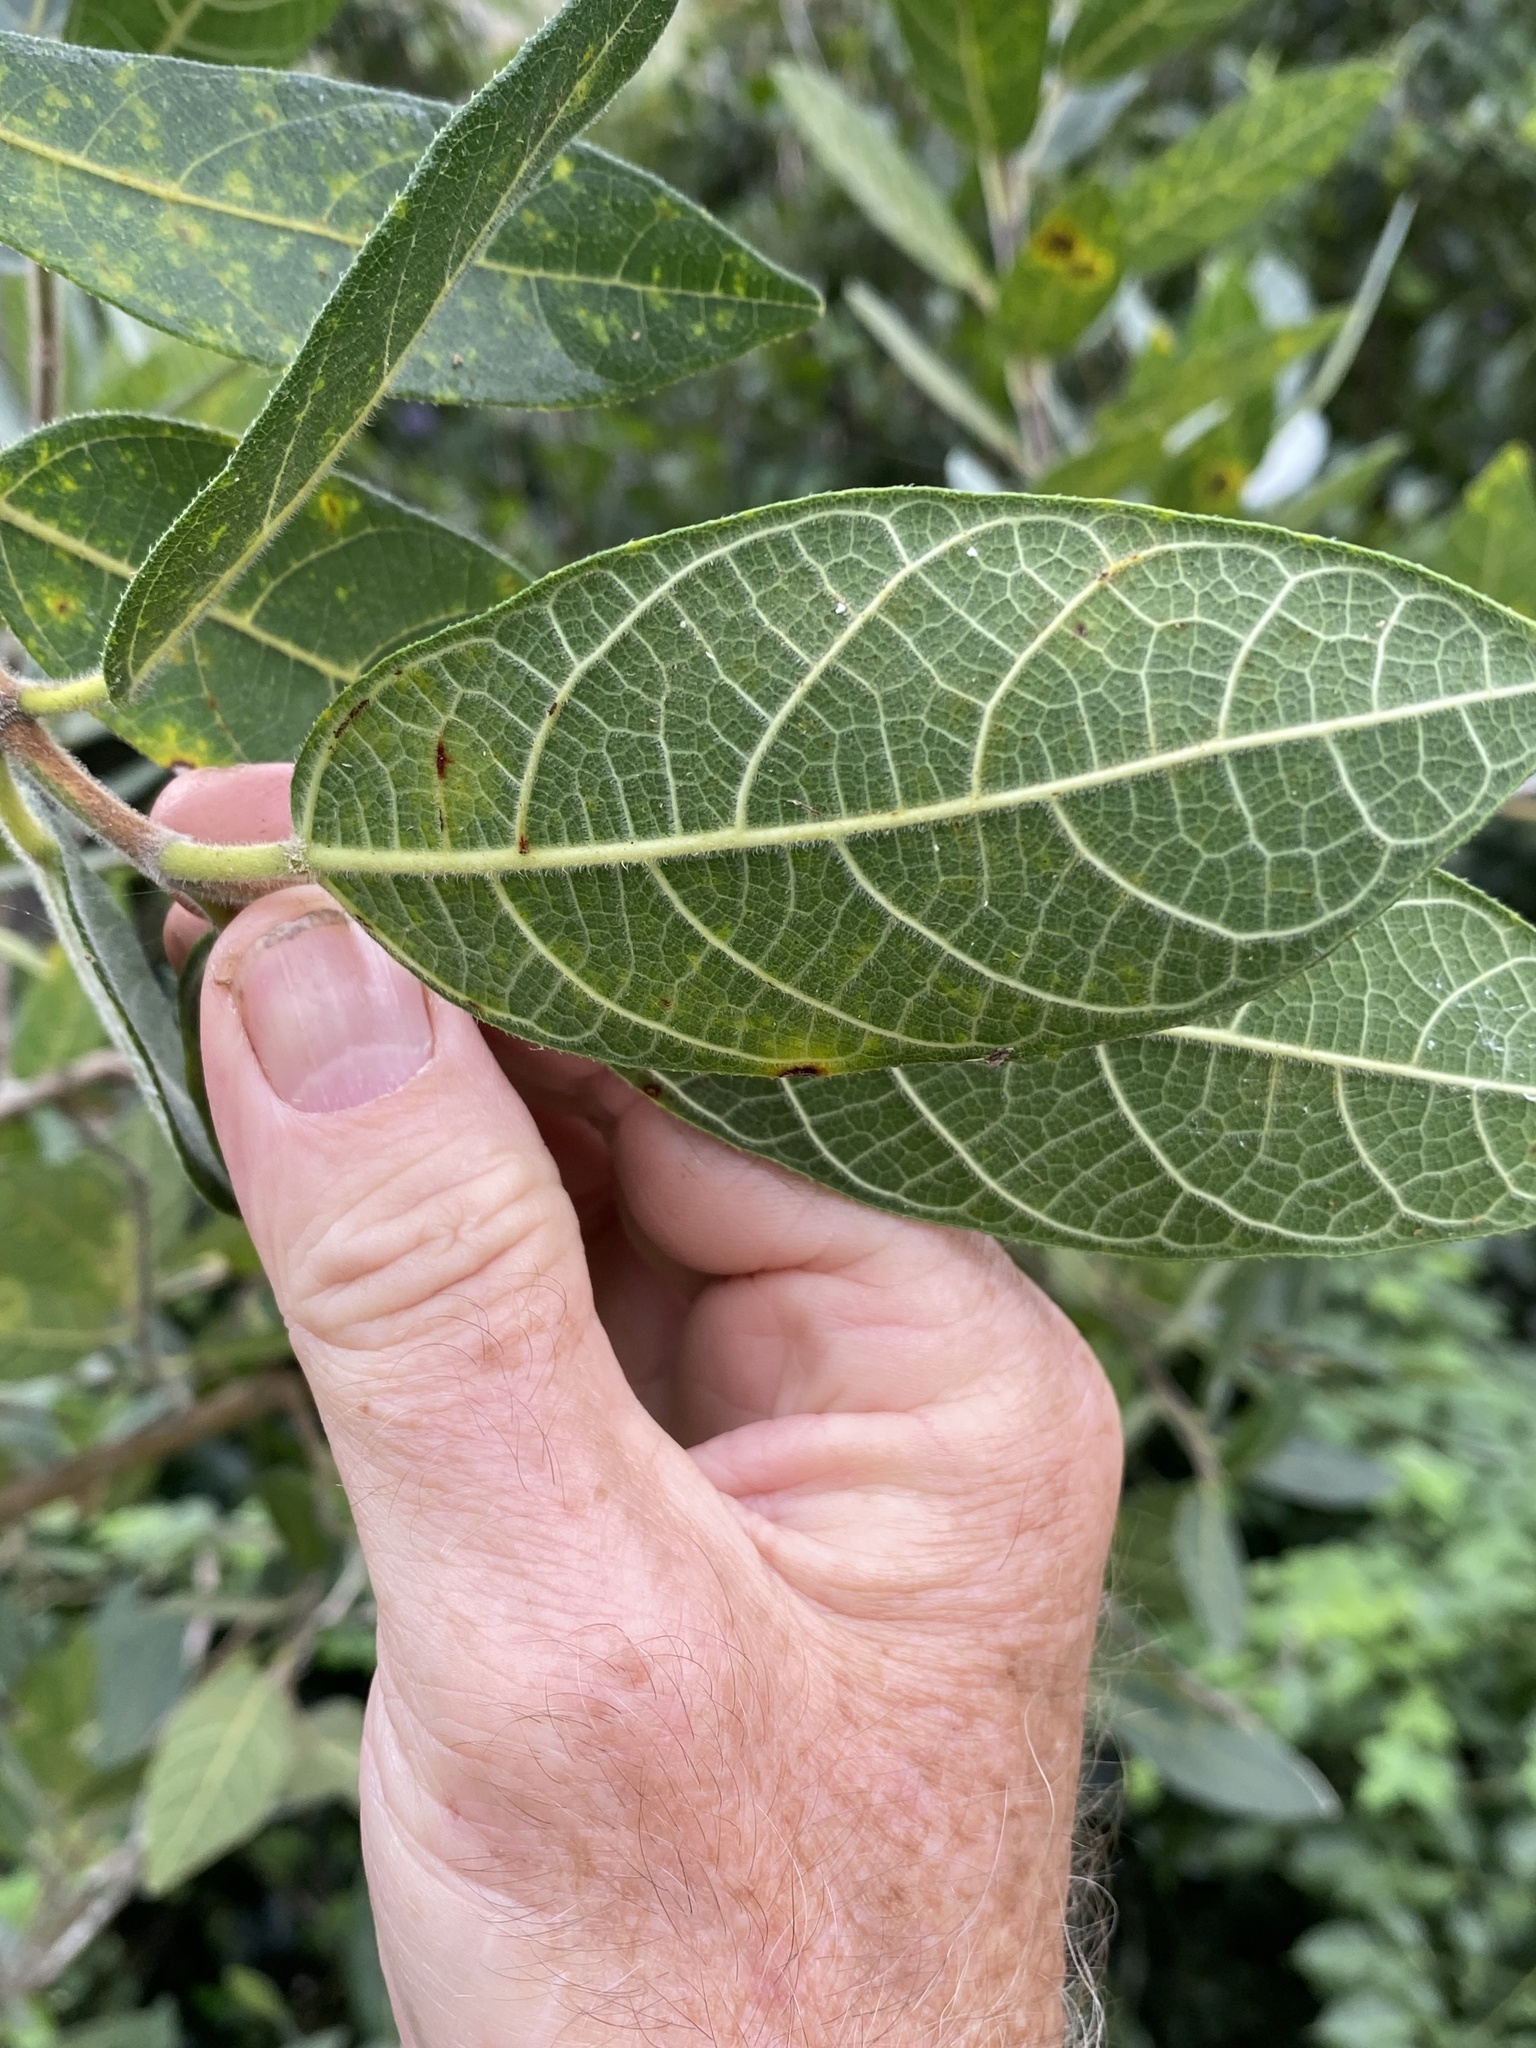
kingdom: Plantae
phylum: Tracheophyta
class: Magnoliopsida
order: Rosales
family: Moraceae
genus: Ficus
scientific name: Ficus opposita
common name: Figwood
